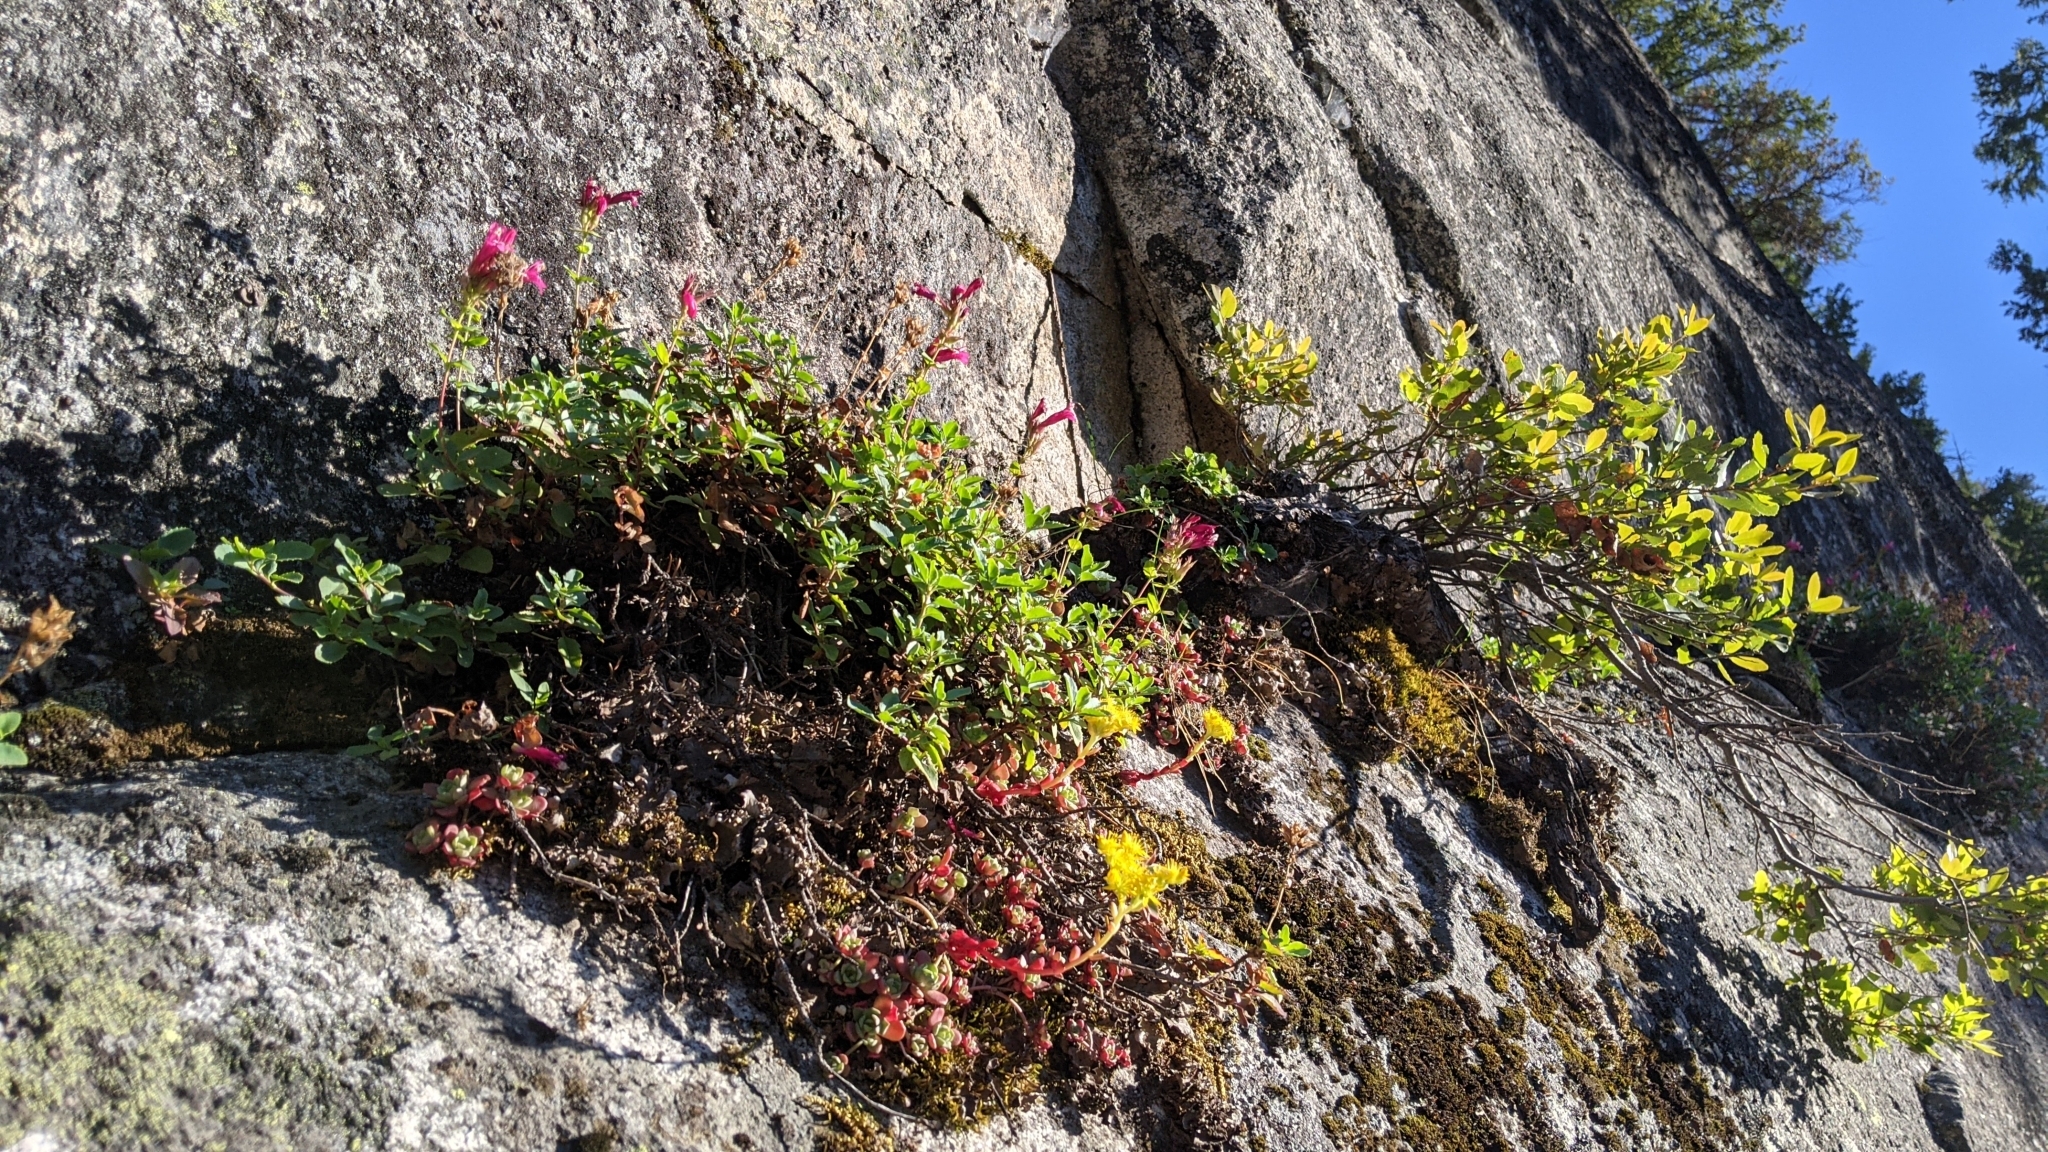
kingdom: Plantae
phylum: Tracheophyta
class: Magnoliopsida
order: Saxifragales
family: Crassulaceae
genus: Sedum
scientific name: Sedum spathulifolium
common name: Colorado stonecrop
